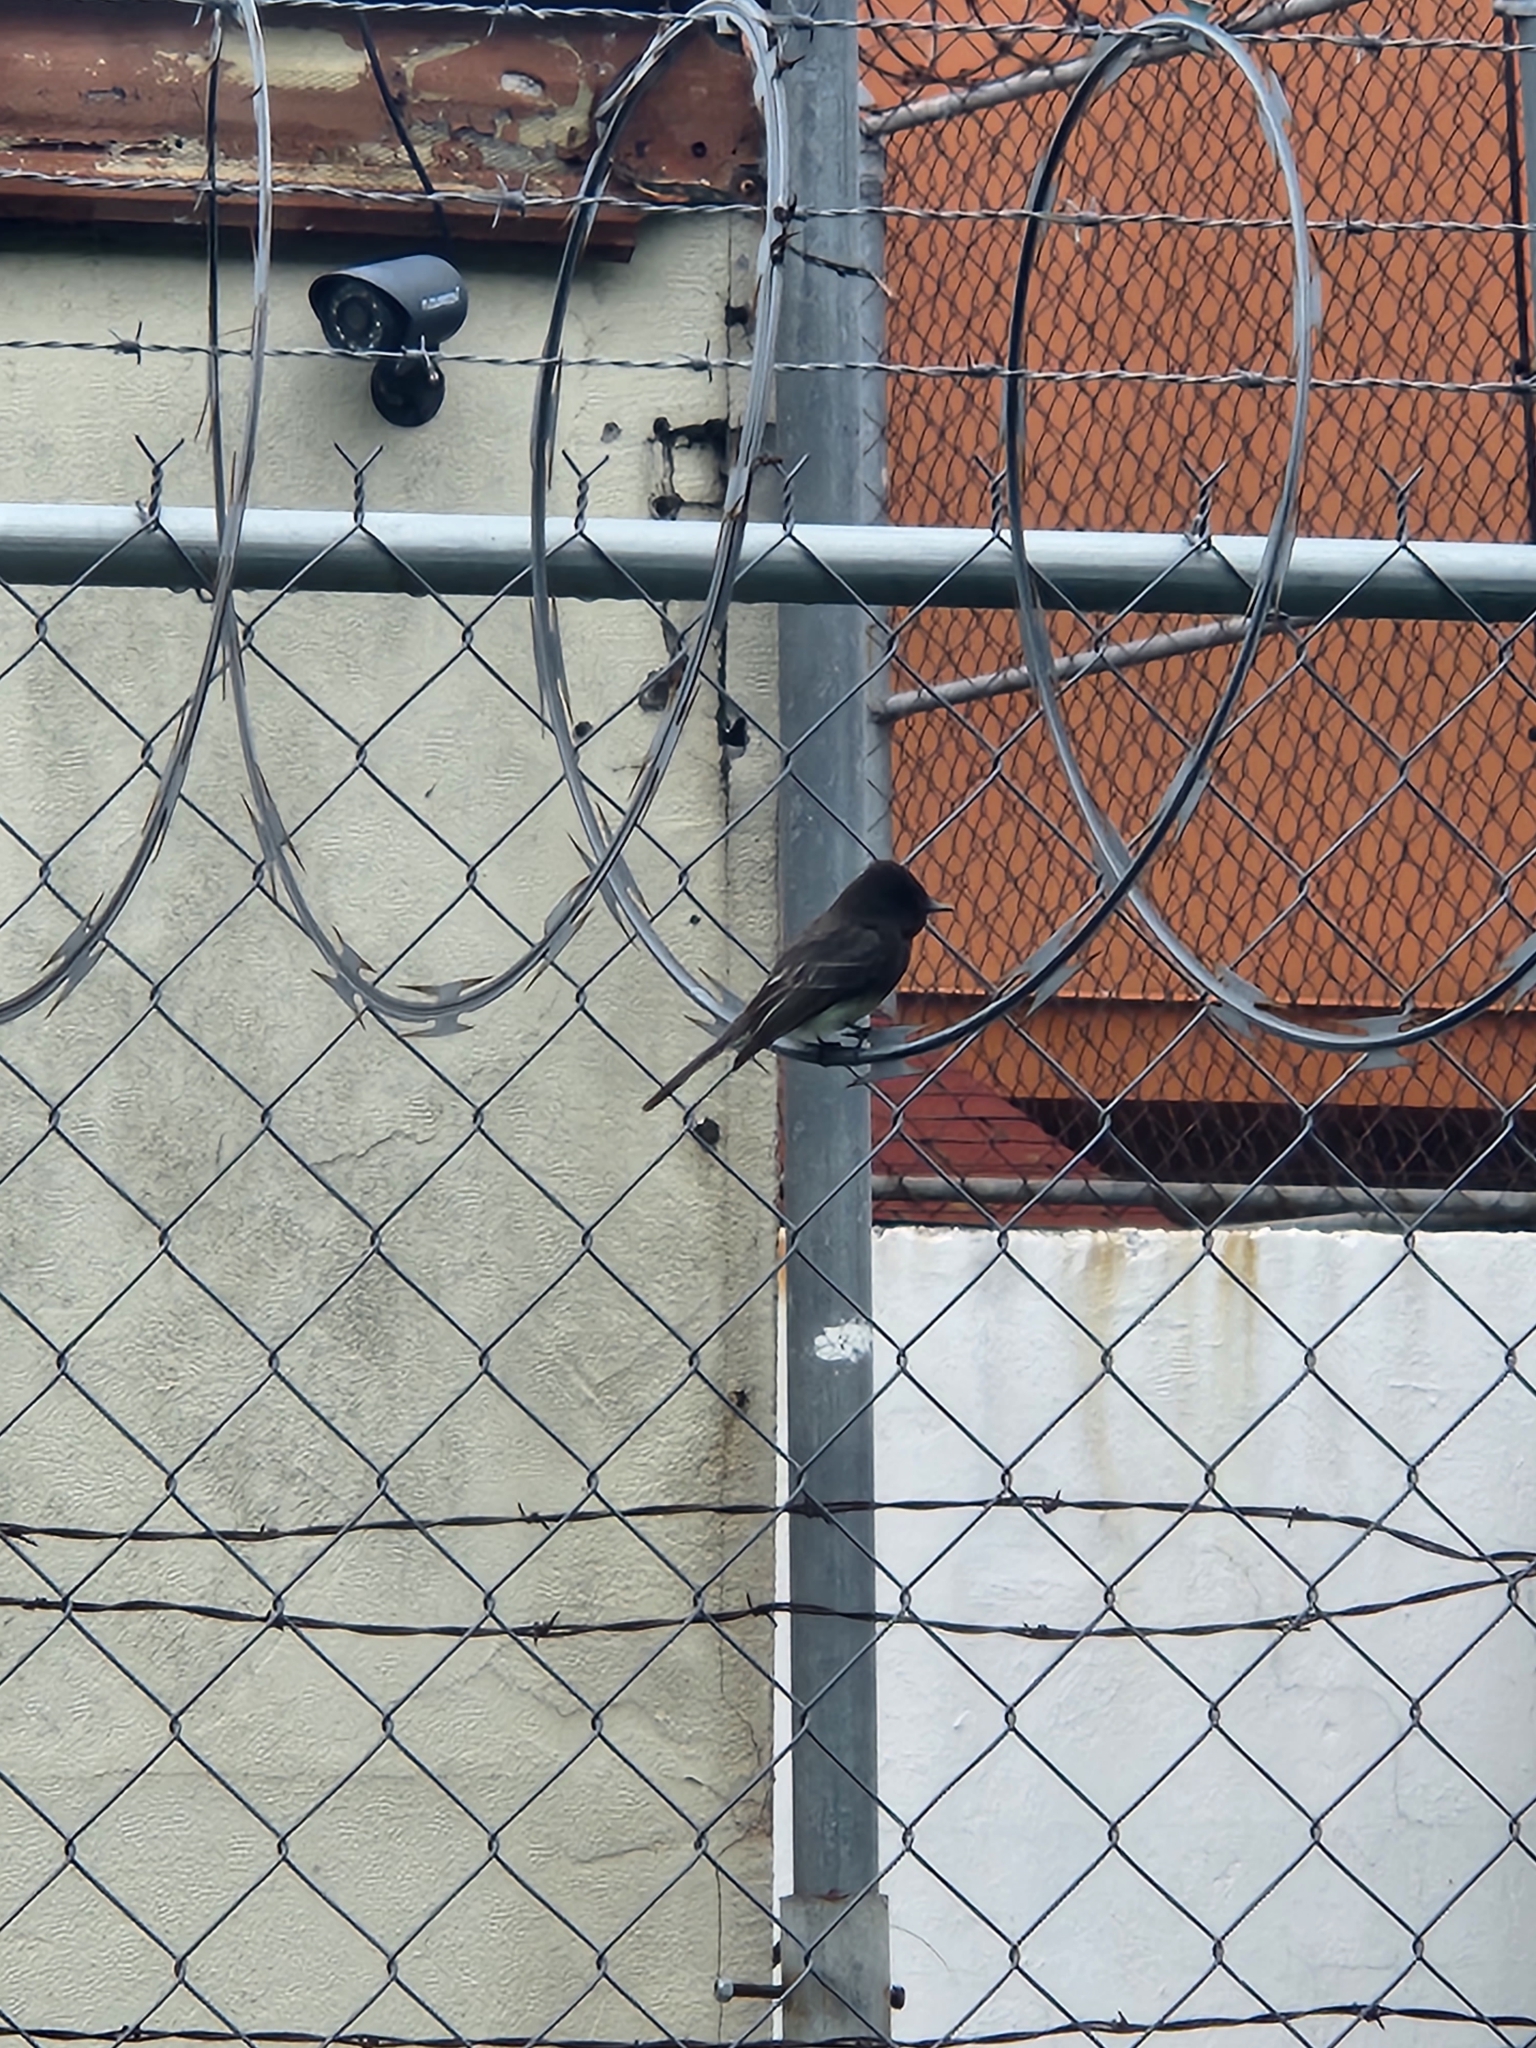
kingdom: Animalia
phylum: Chordata
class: Aves
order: Passeriformes
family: Tyrannidae
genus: Sayornis
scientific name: Sayornis nigricans
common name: Black phoebe
